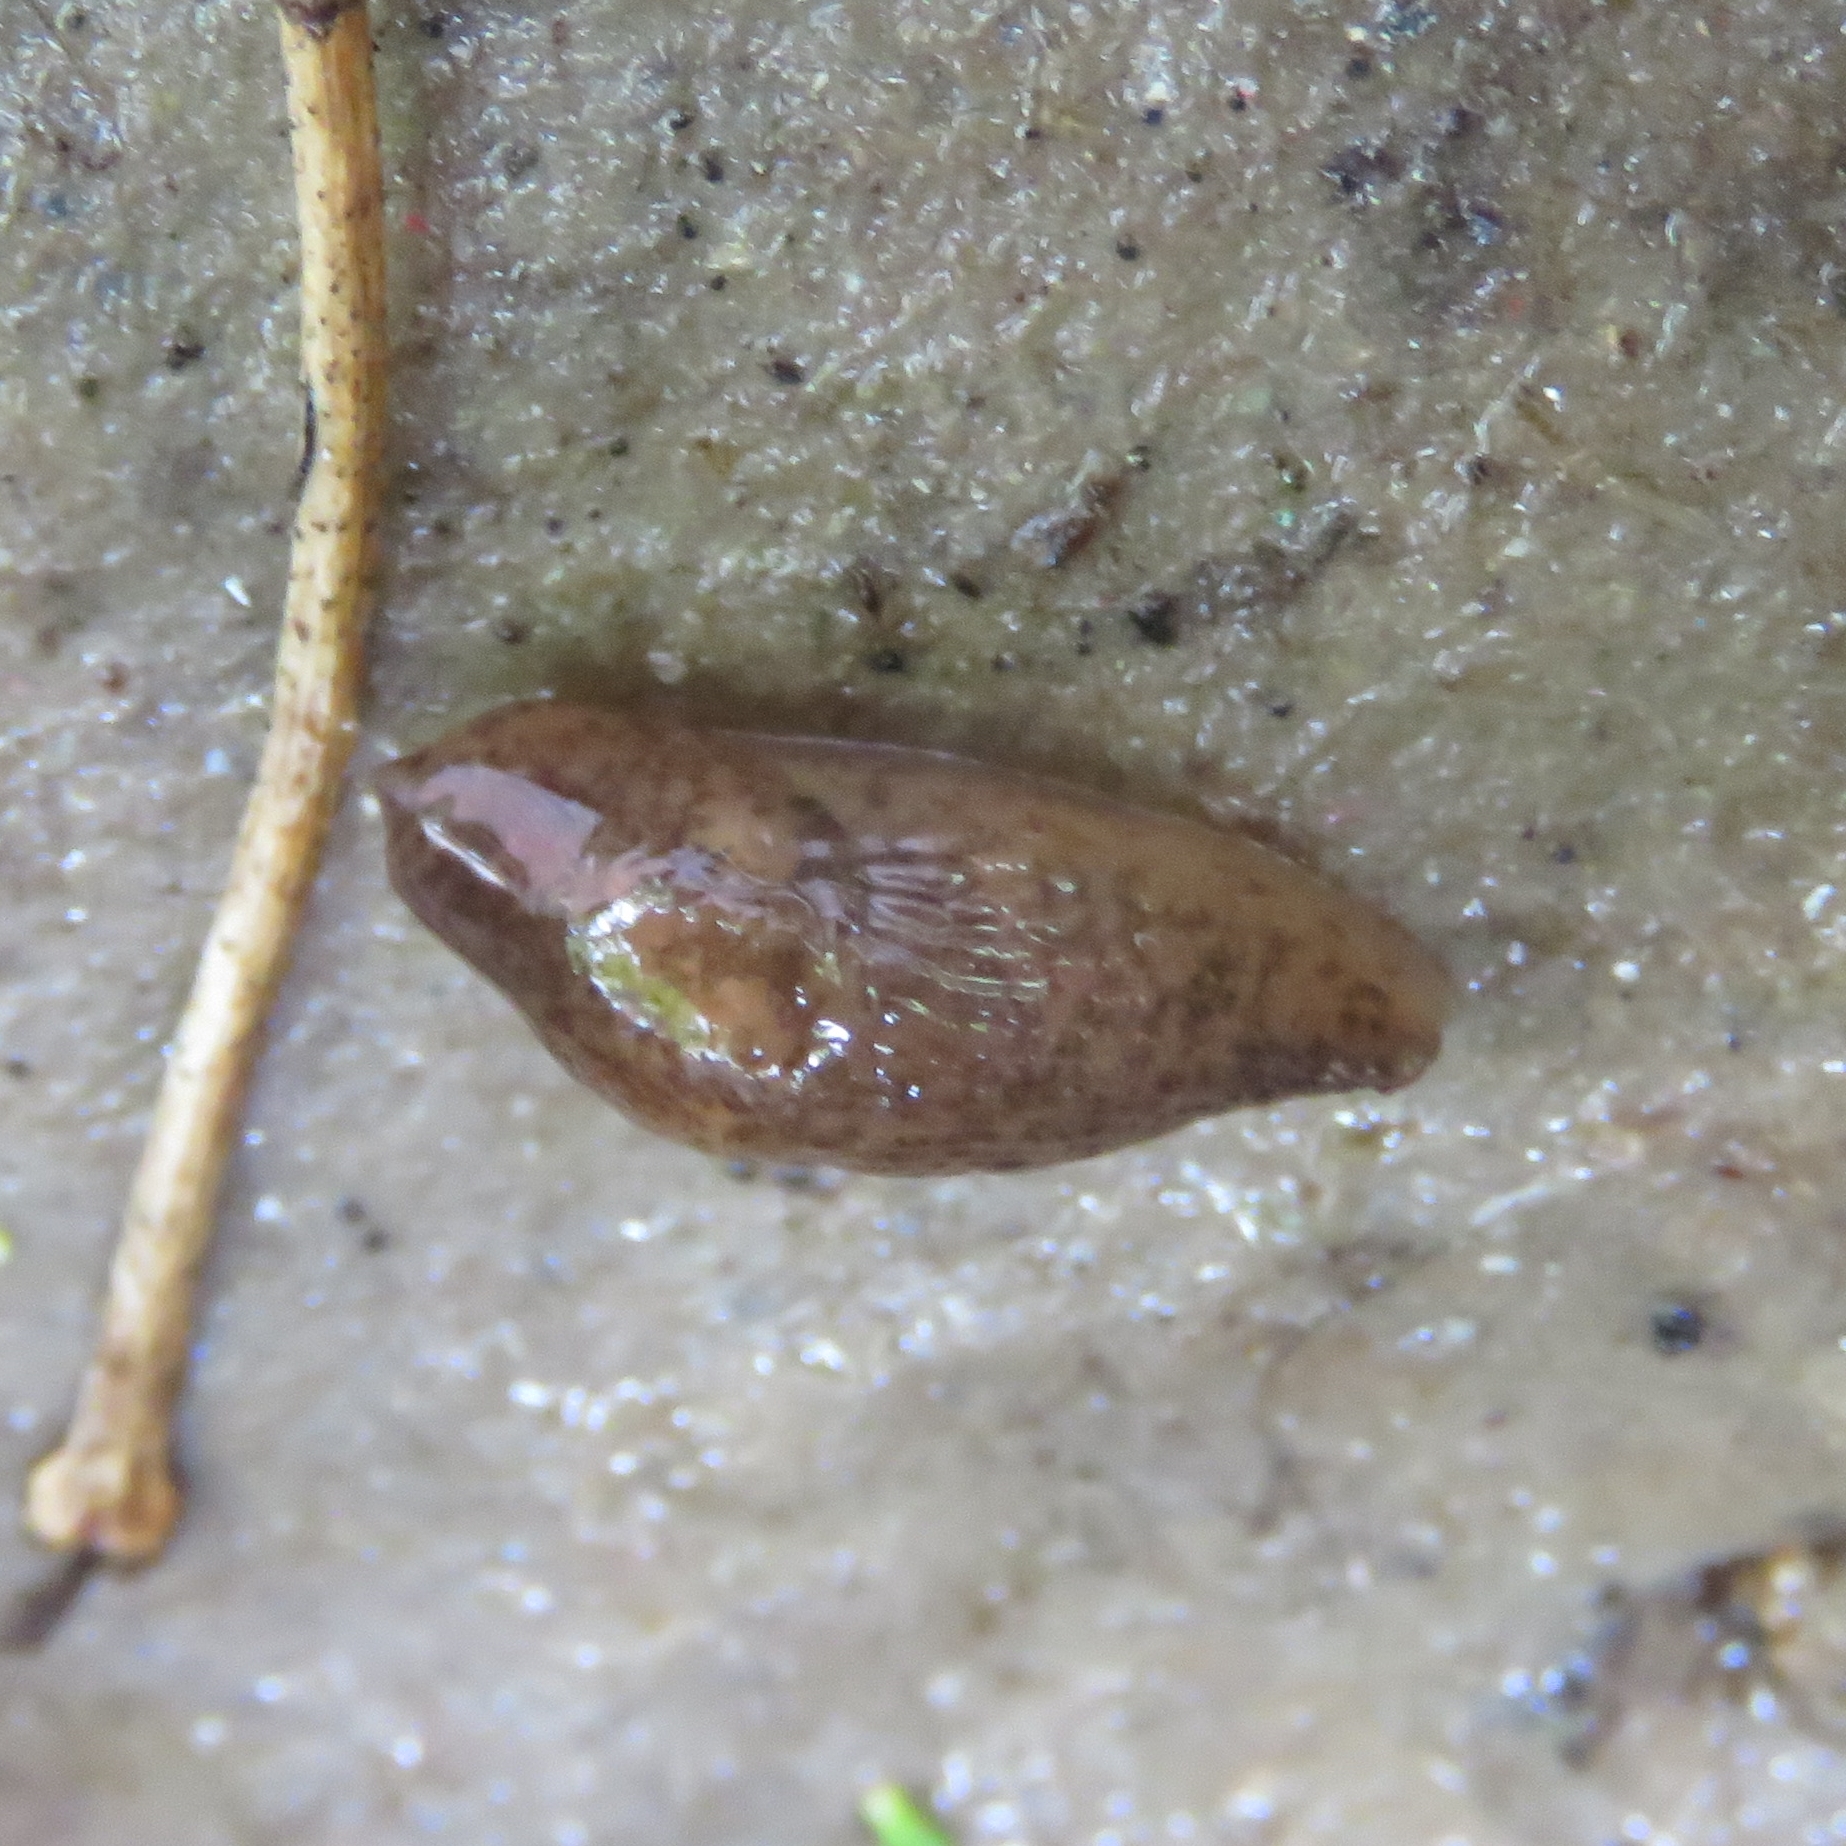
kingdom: Animalia
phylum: Mollusca
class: Gastropoda
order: Stylommatophora
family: Agriolimacidae
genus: Deroceras
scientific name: Deroceras reticulatum
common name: Gray field slug
